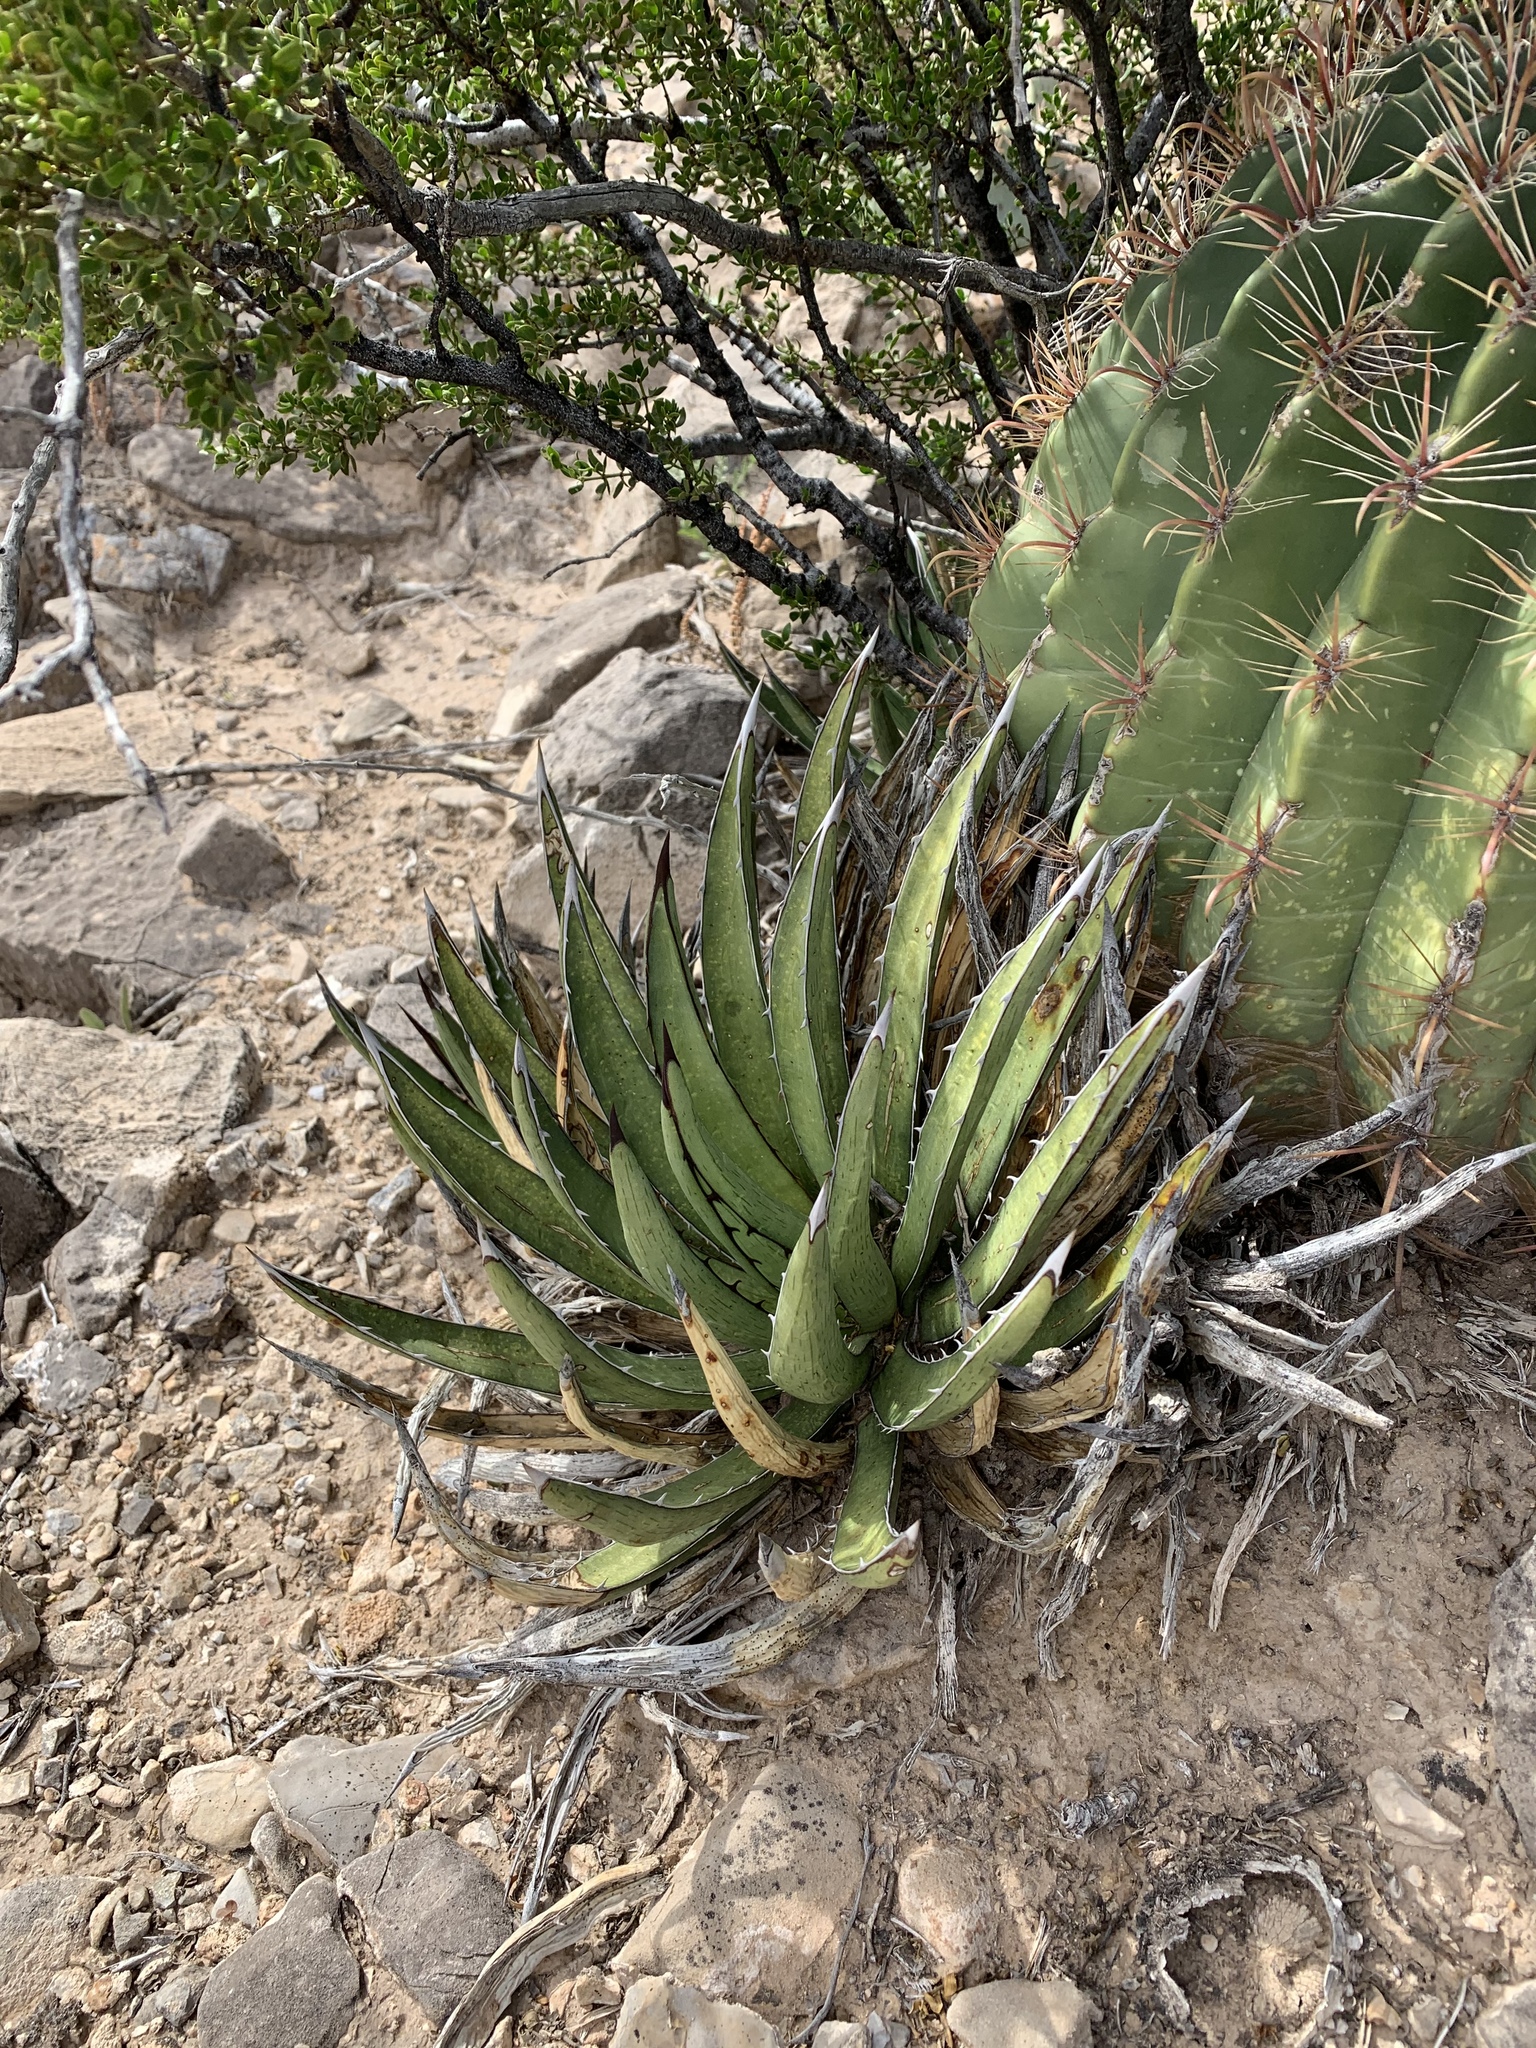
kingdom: Plantae
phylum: Tracheophyta
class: Liliopsida
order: Asparagales
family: Asparagaceae
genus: Agave
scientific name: Agave lechuguilla
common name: Lecheguilla agave
